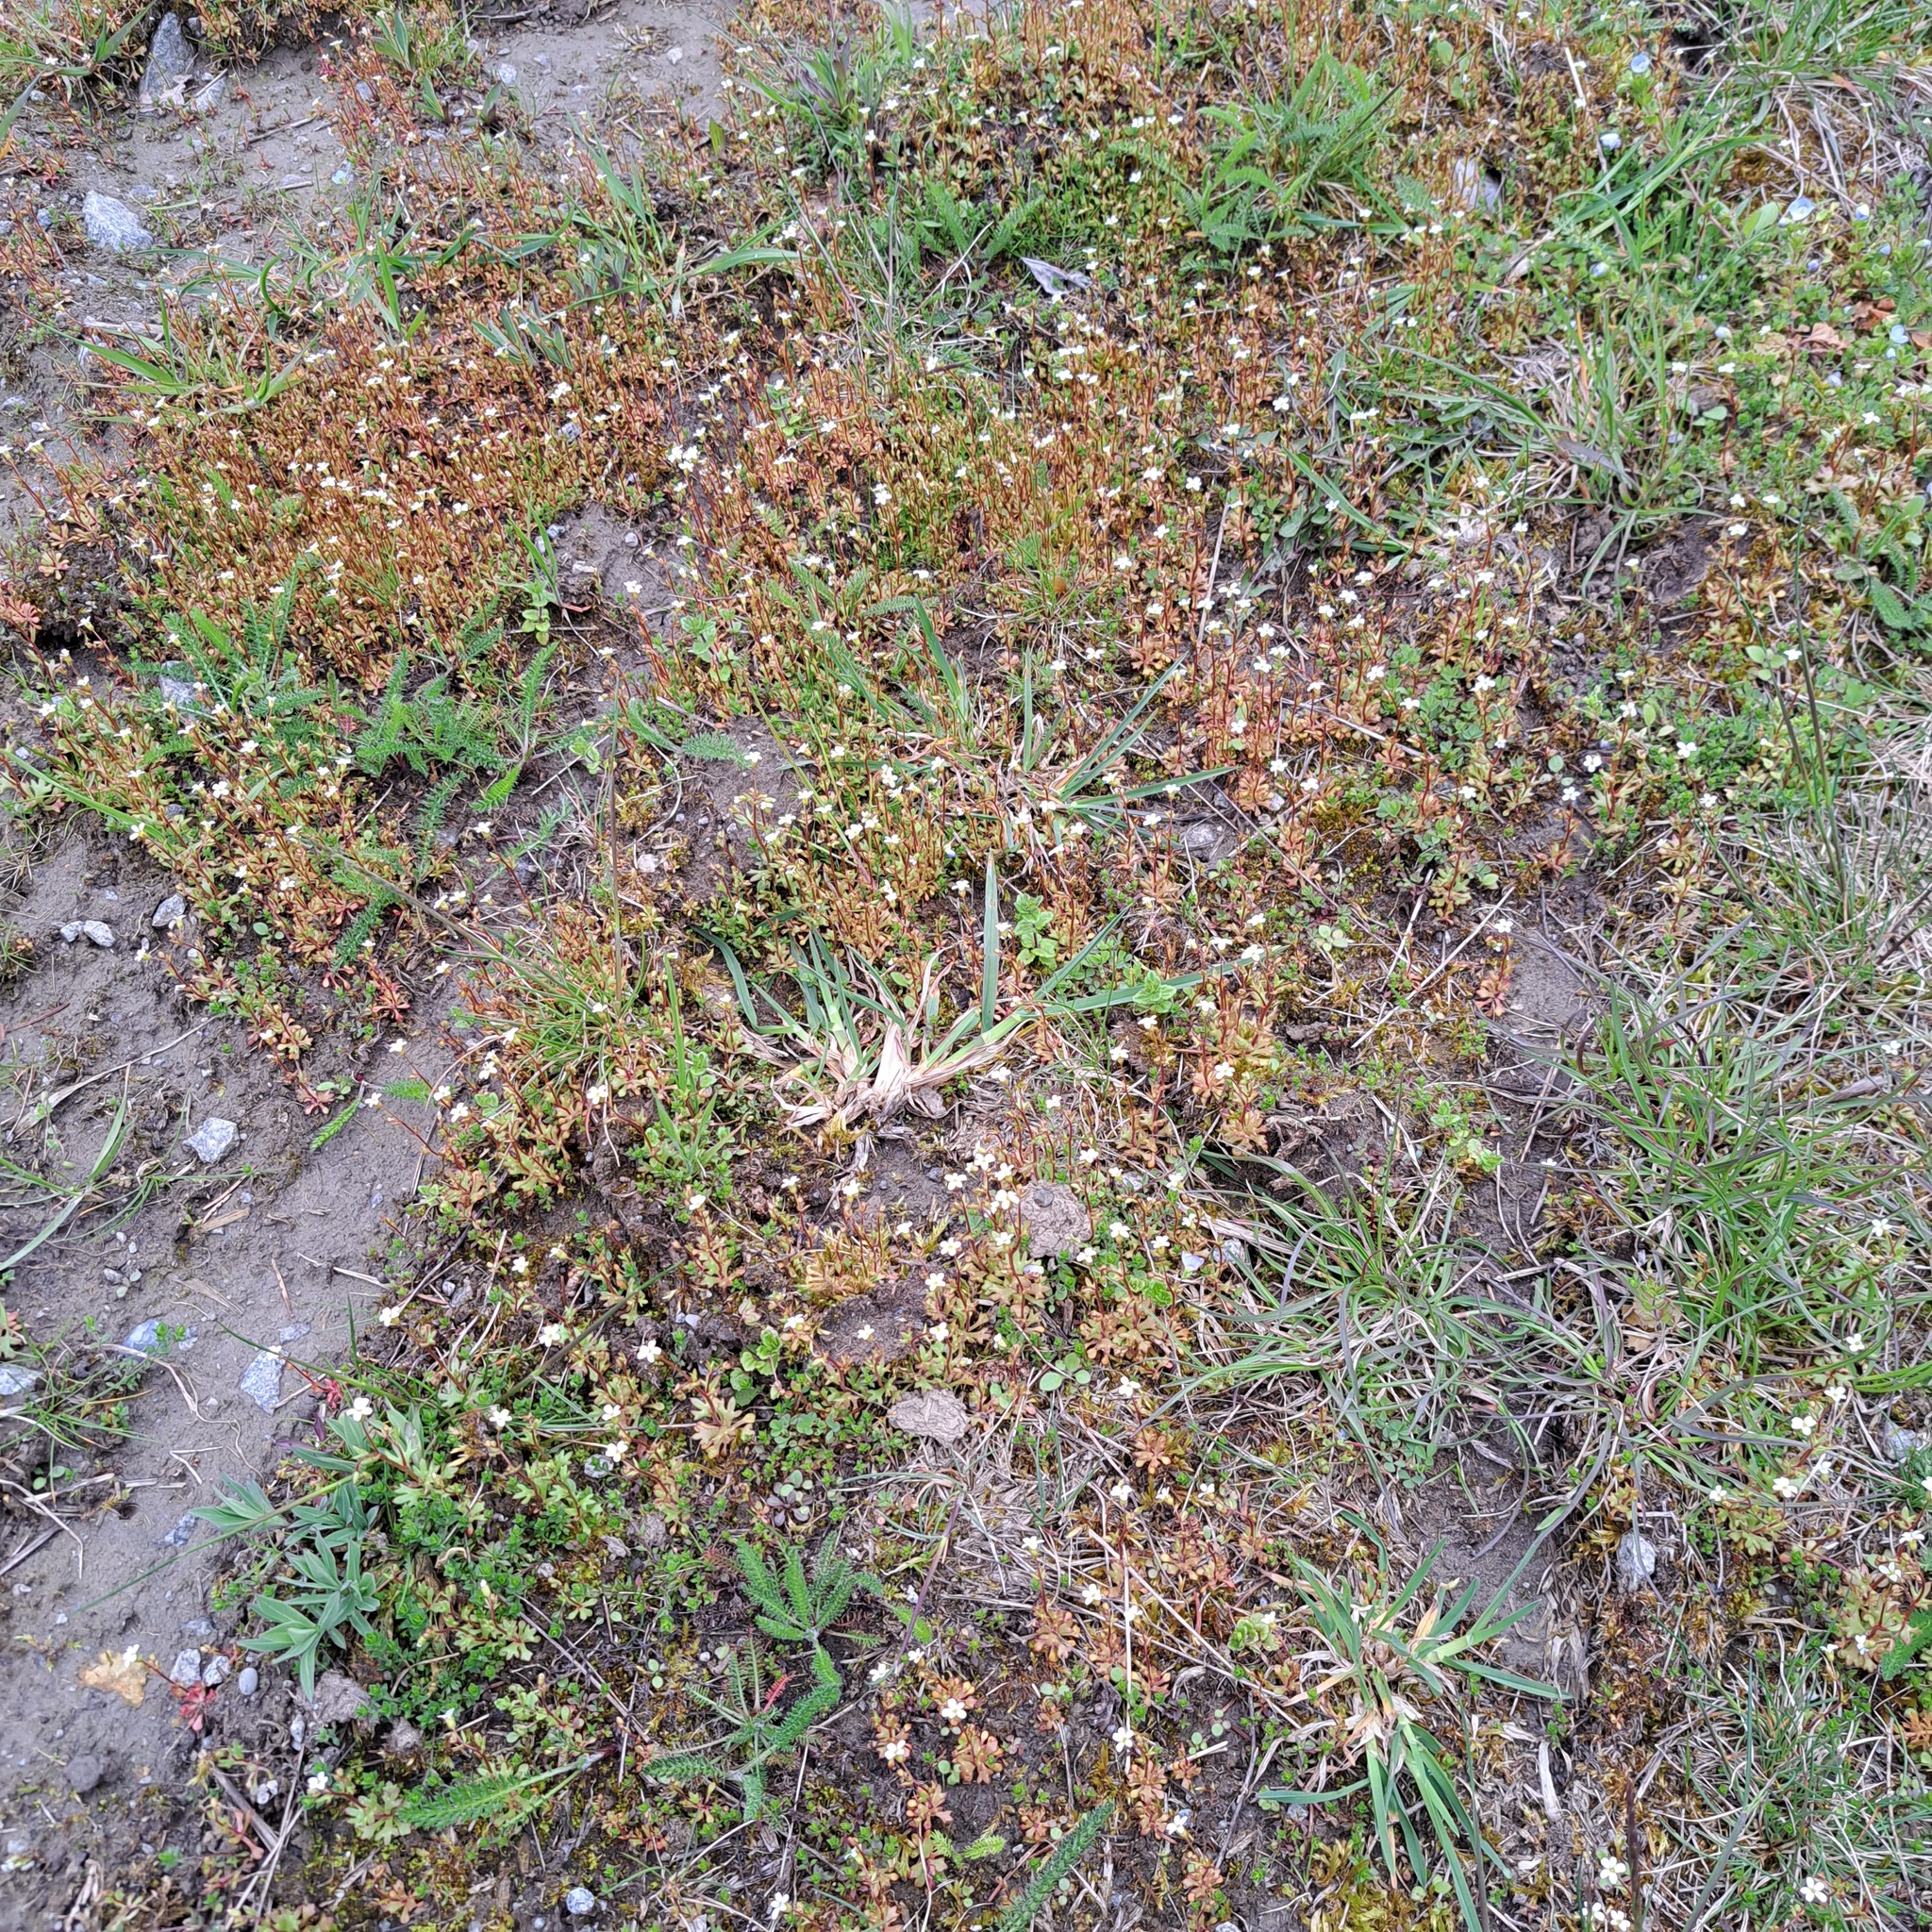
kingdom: Plantae
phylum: Tracheophyta
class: Magnoliopsida
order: Saxifragales
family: Saxifragaceae
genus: Saxifraga
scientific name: Saxifraga tridactylites
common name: Rue-leaved saxifrage
